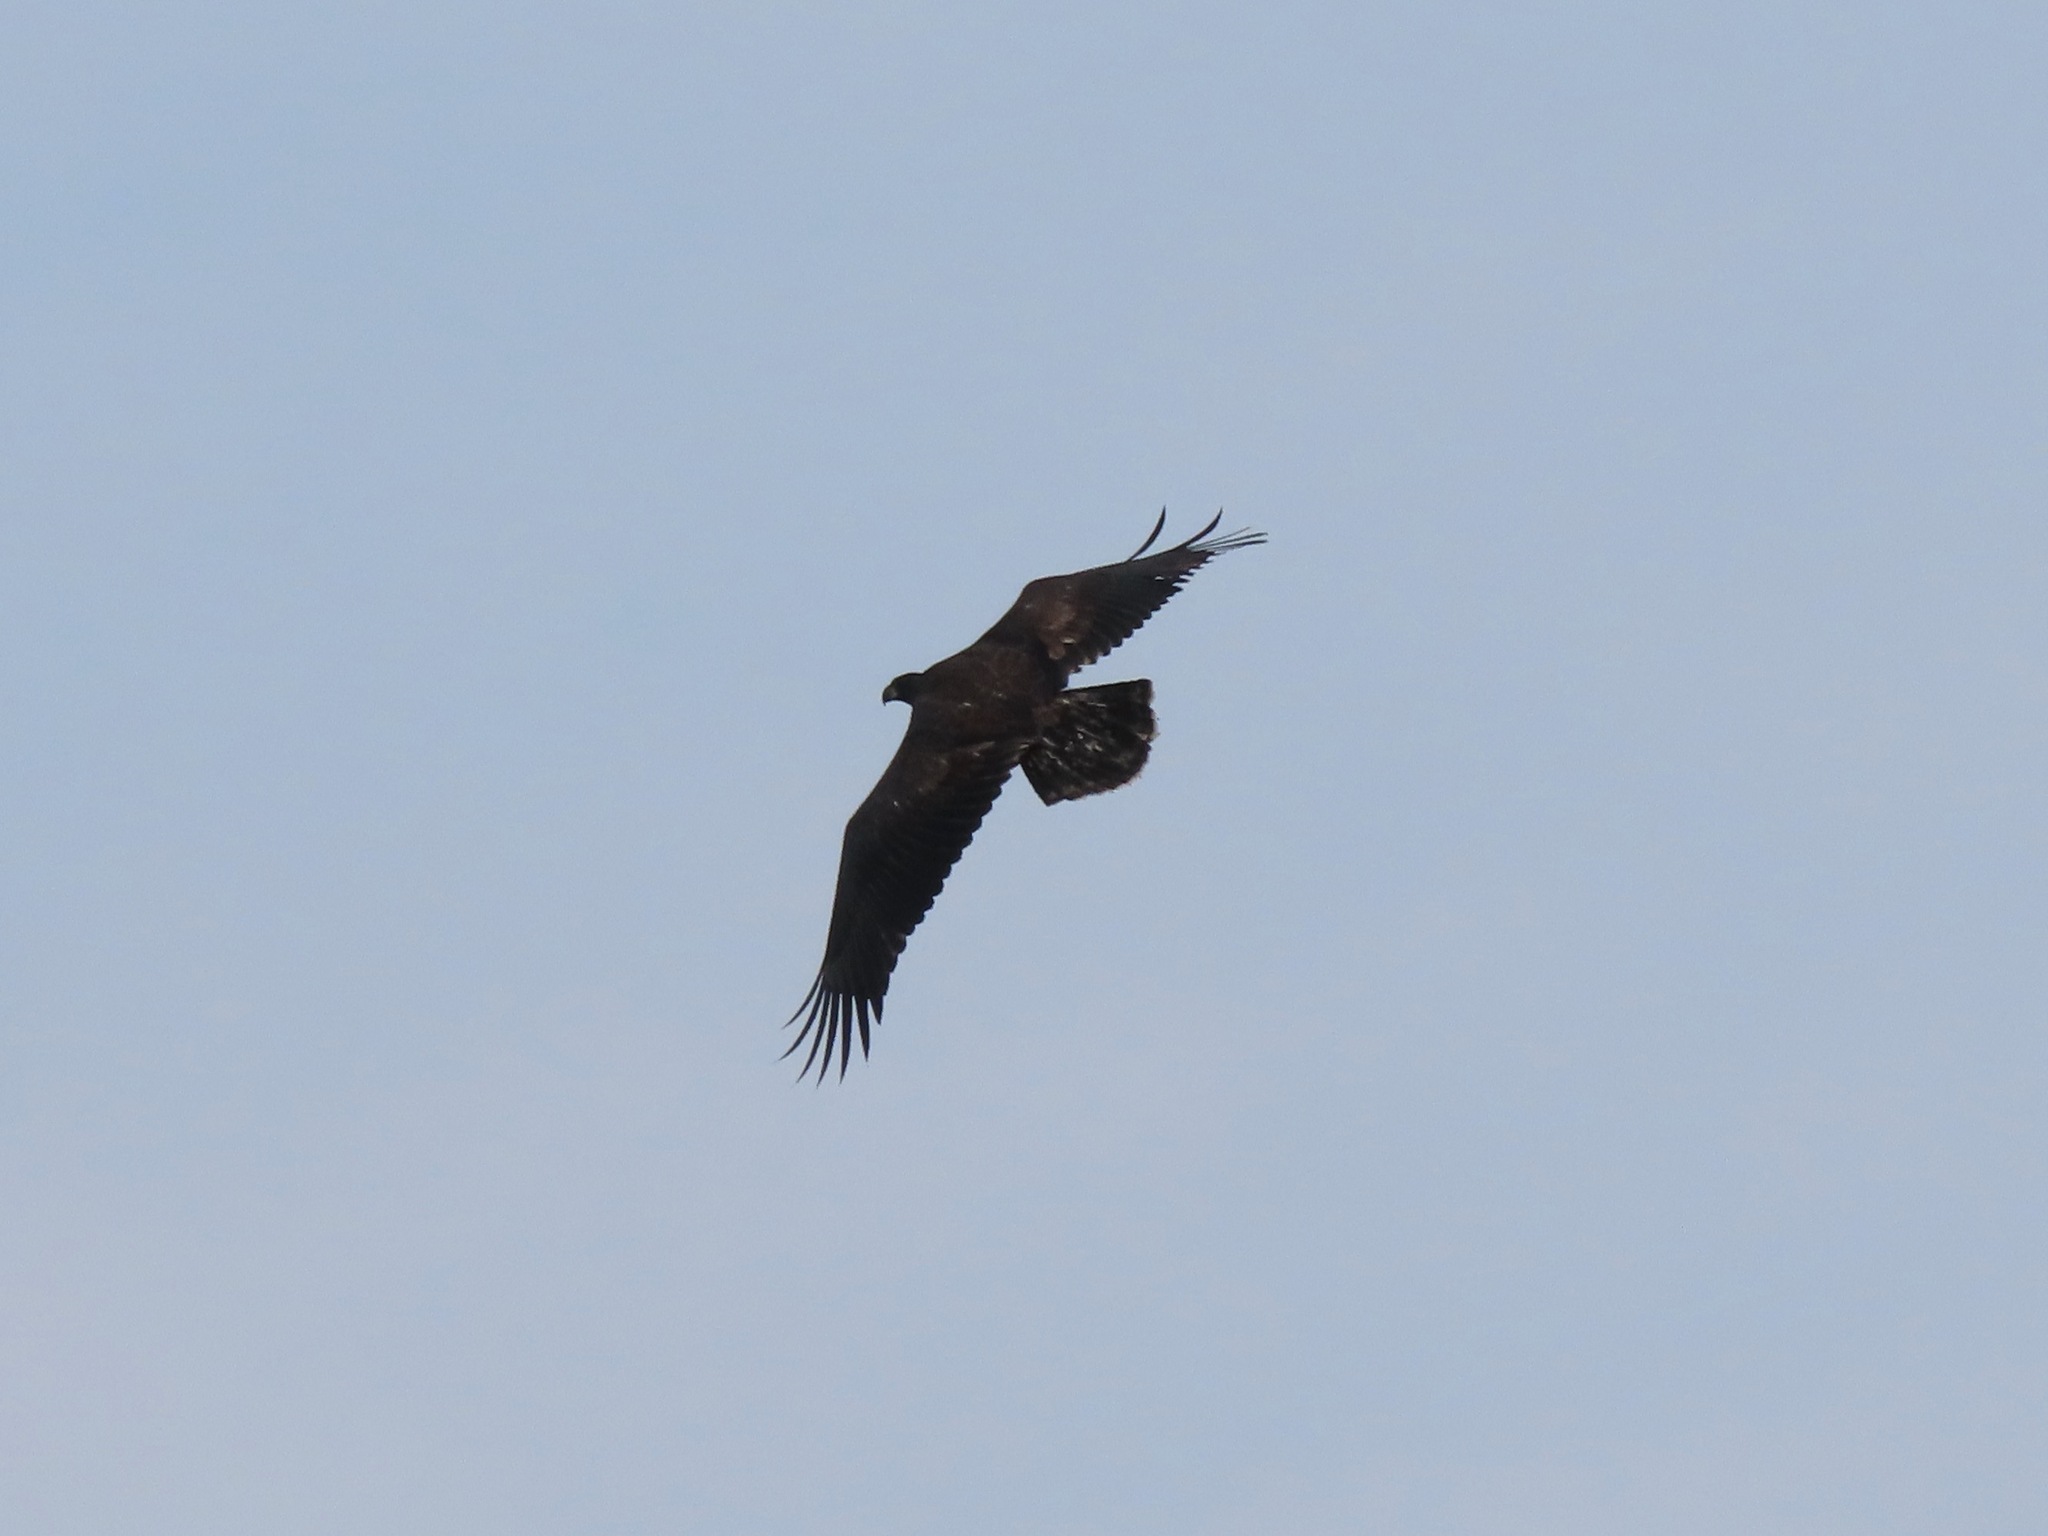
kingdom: Animalia
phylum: Chordata
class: Aves
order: Accipitriformes
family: Accipitridae
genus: Haliaeetus
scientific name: Haliaeetus leucocephalus
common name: Bald eagle
